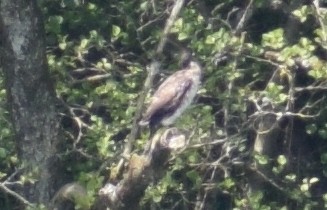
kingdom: Animalia
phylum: Chordata
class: Aves
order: Suliformes
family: Phalacrocoracidae
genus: Phalacrocorax
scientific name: Phalacrocorax carbo
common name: Great cormorant
